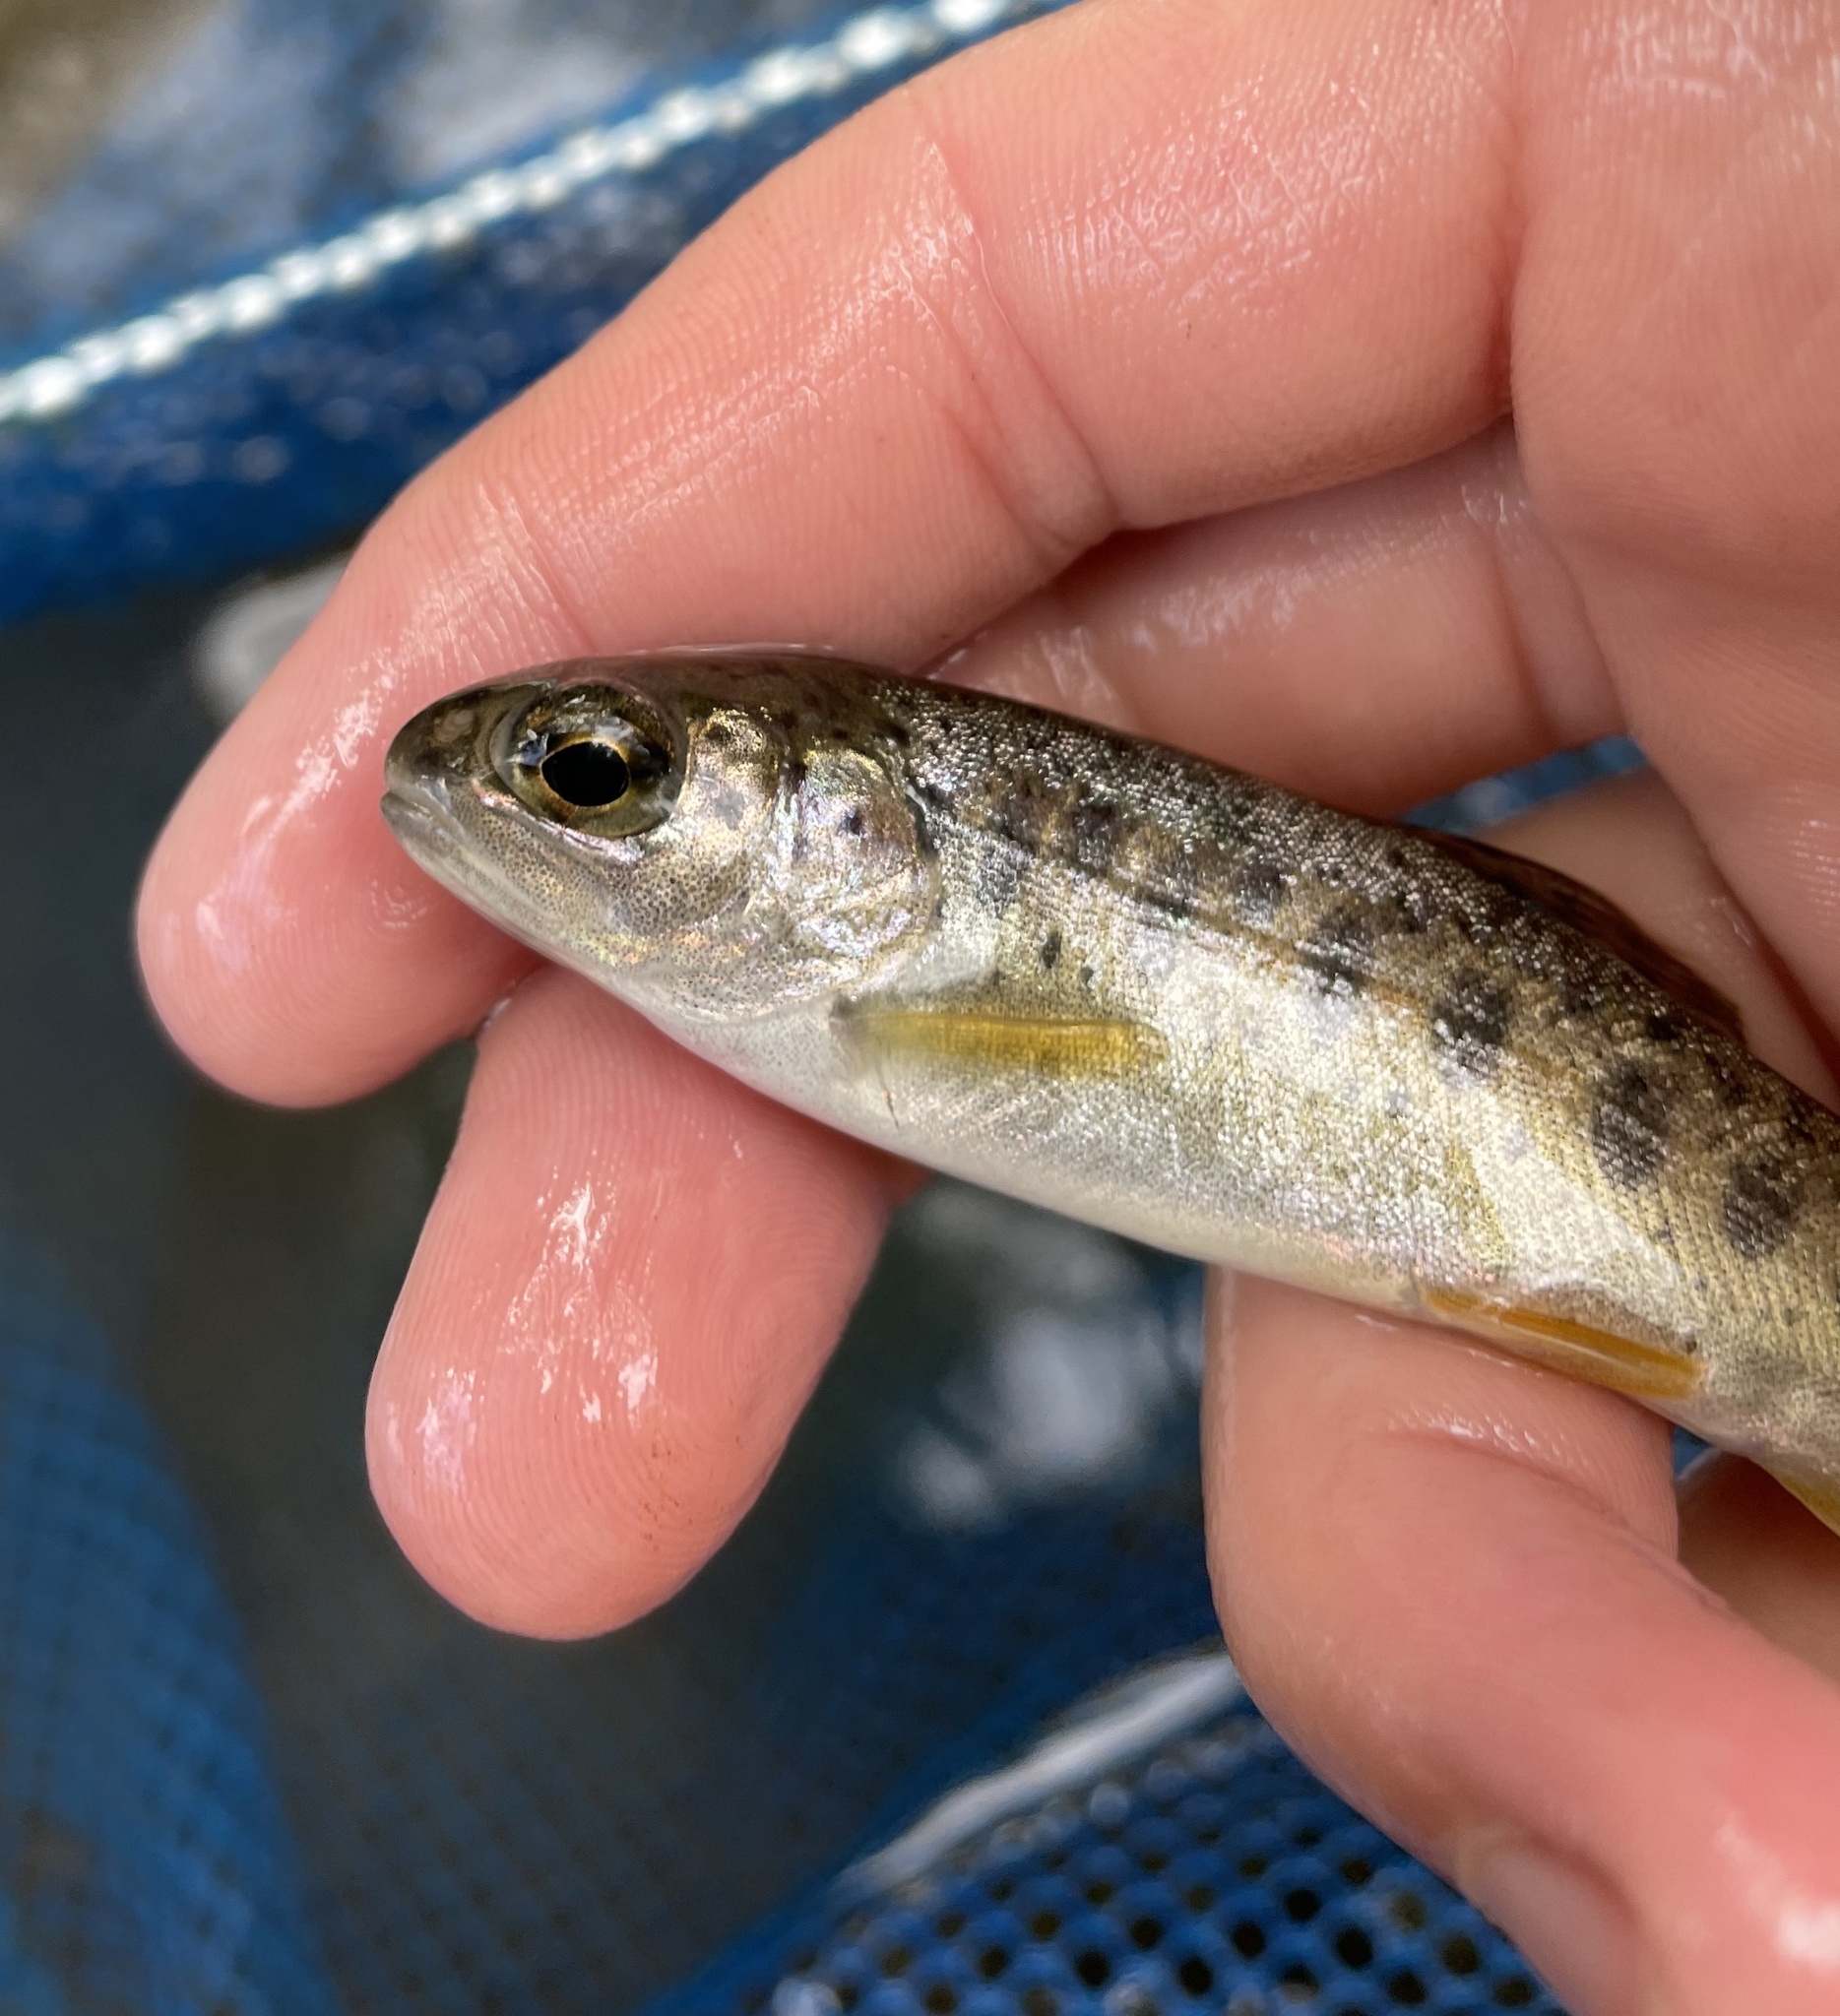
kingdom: Animalia
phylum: Chordata
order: Salmoniformes
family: Salmonidae
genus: Oncorhynchus
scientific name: Oncorhynchus mykiss
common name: Rainbow trout
